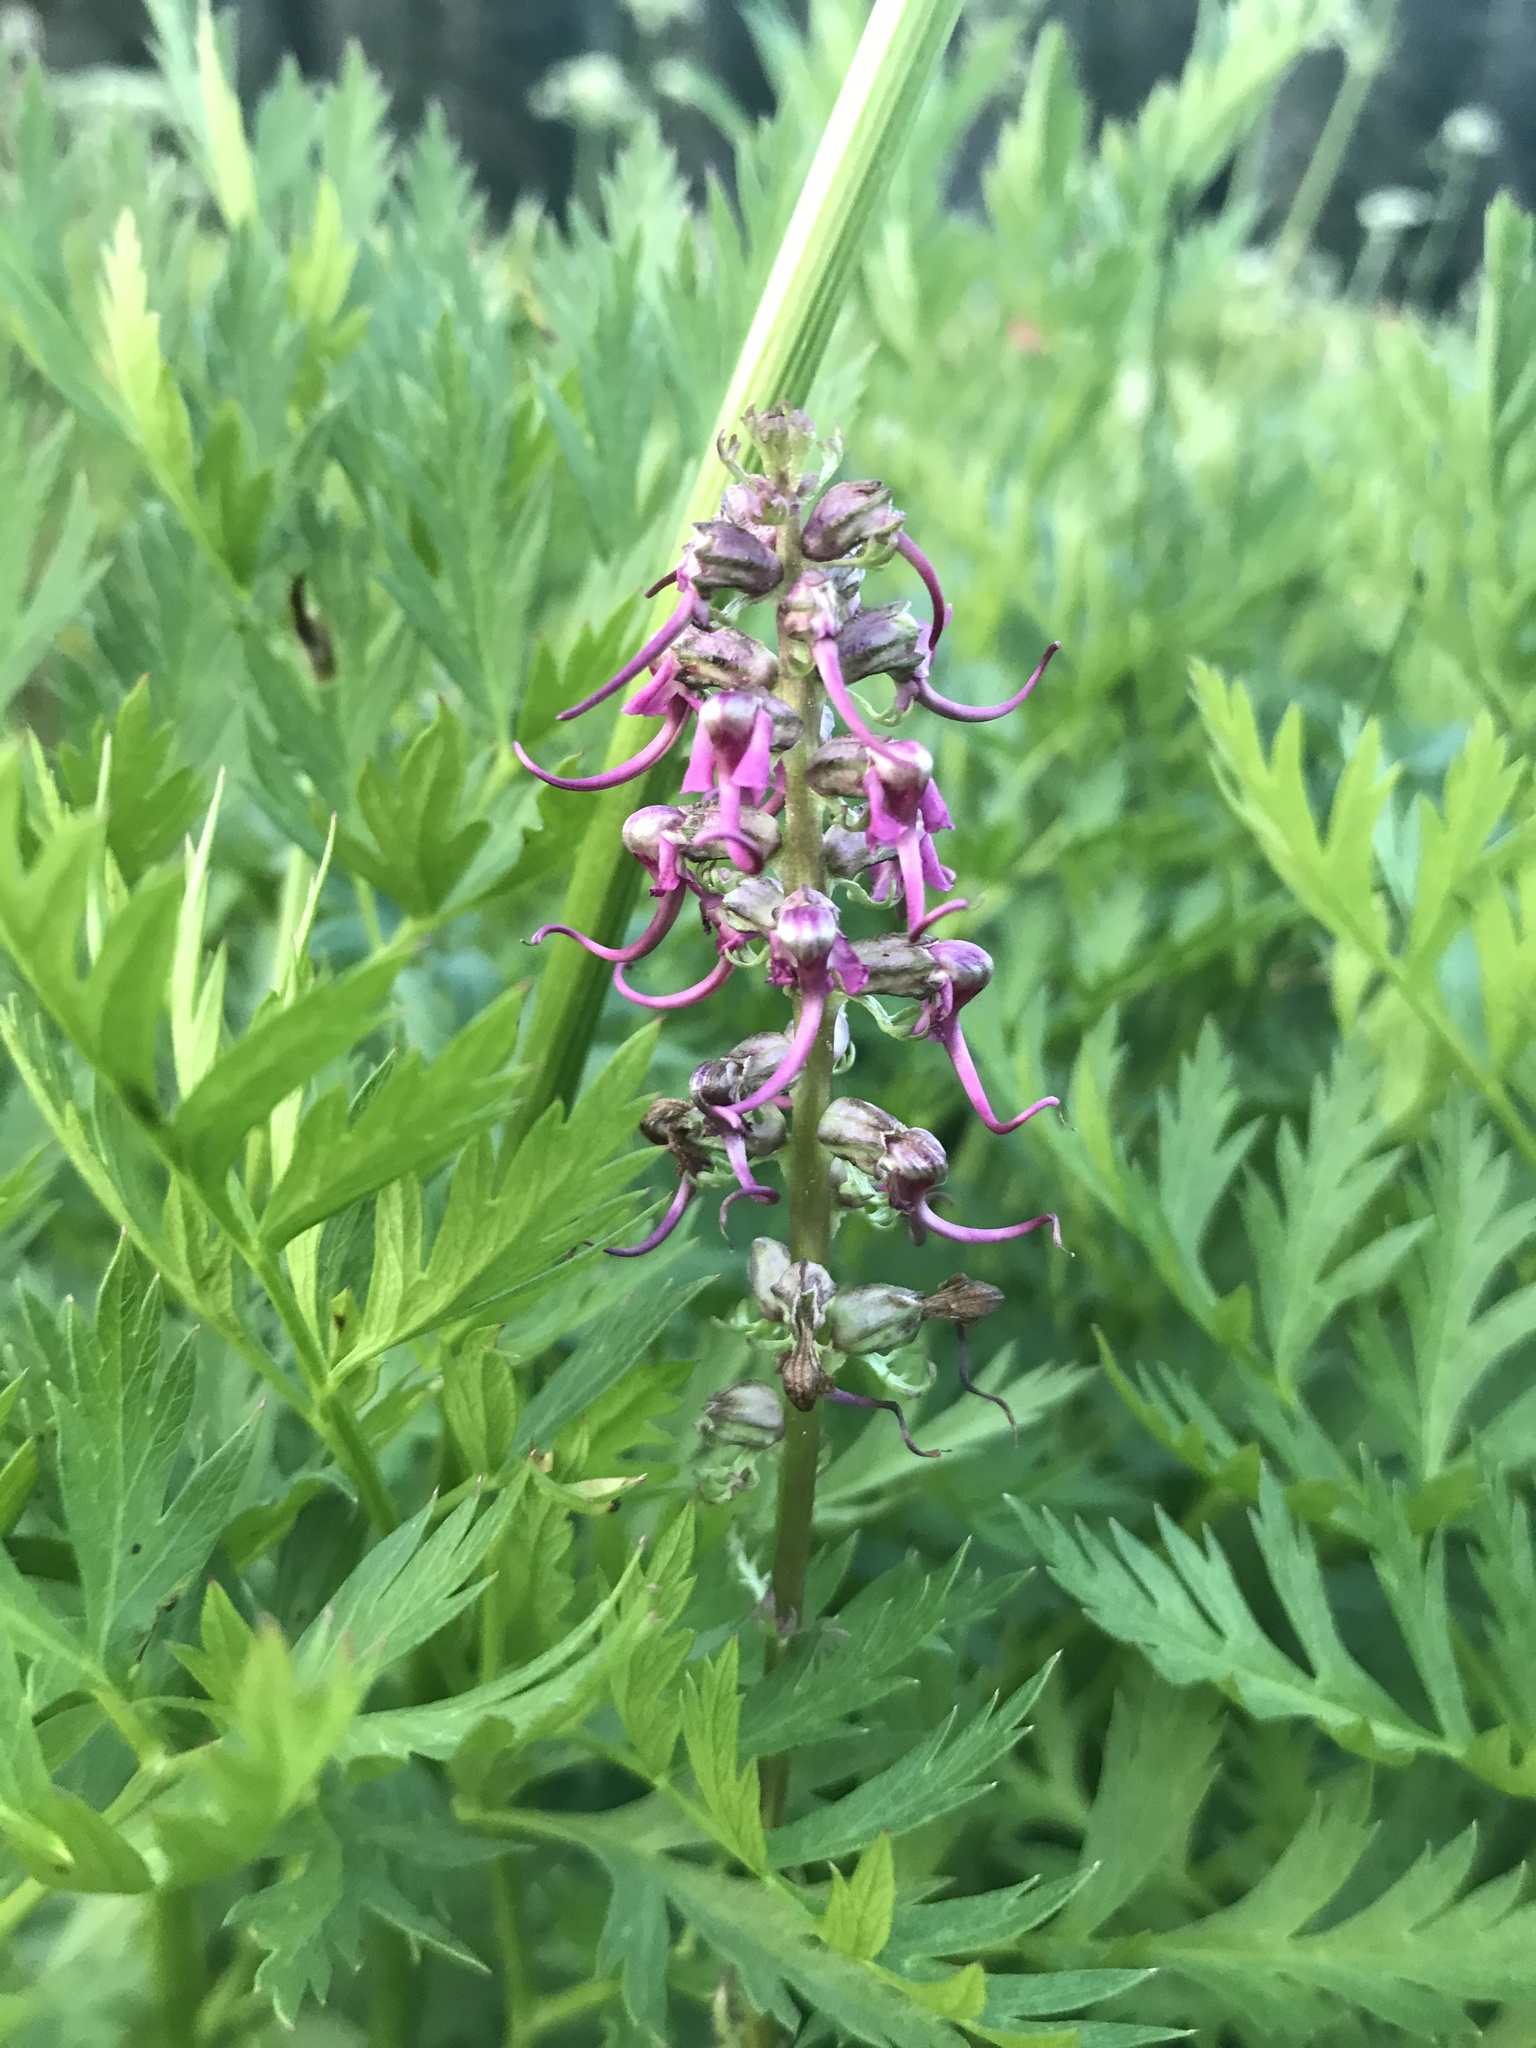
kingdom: Plantae
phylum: Tracheophyta
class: Magnoliopsida
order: Lamiales
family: Orobanchaceae
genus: Pedicularis
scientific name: Pedicularis groenlandica
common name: Elephant's-head
